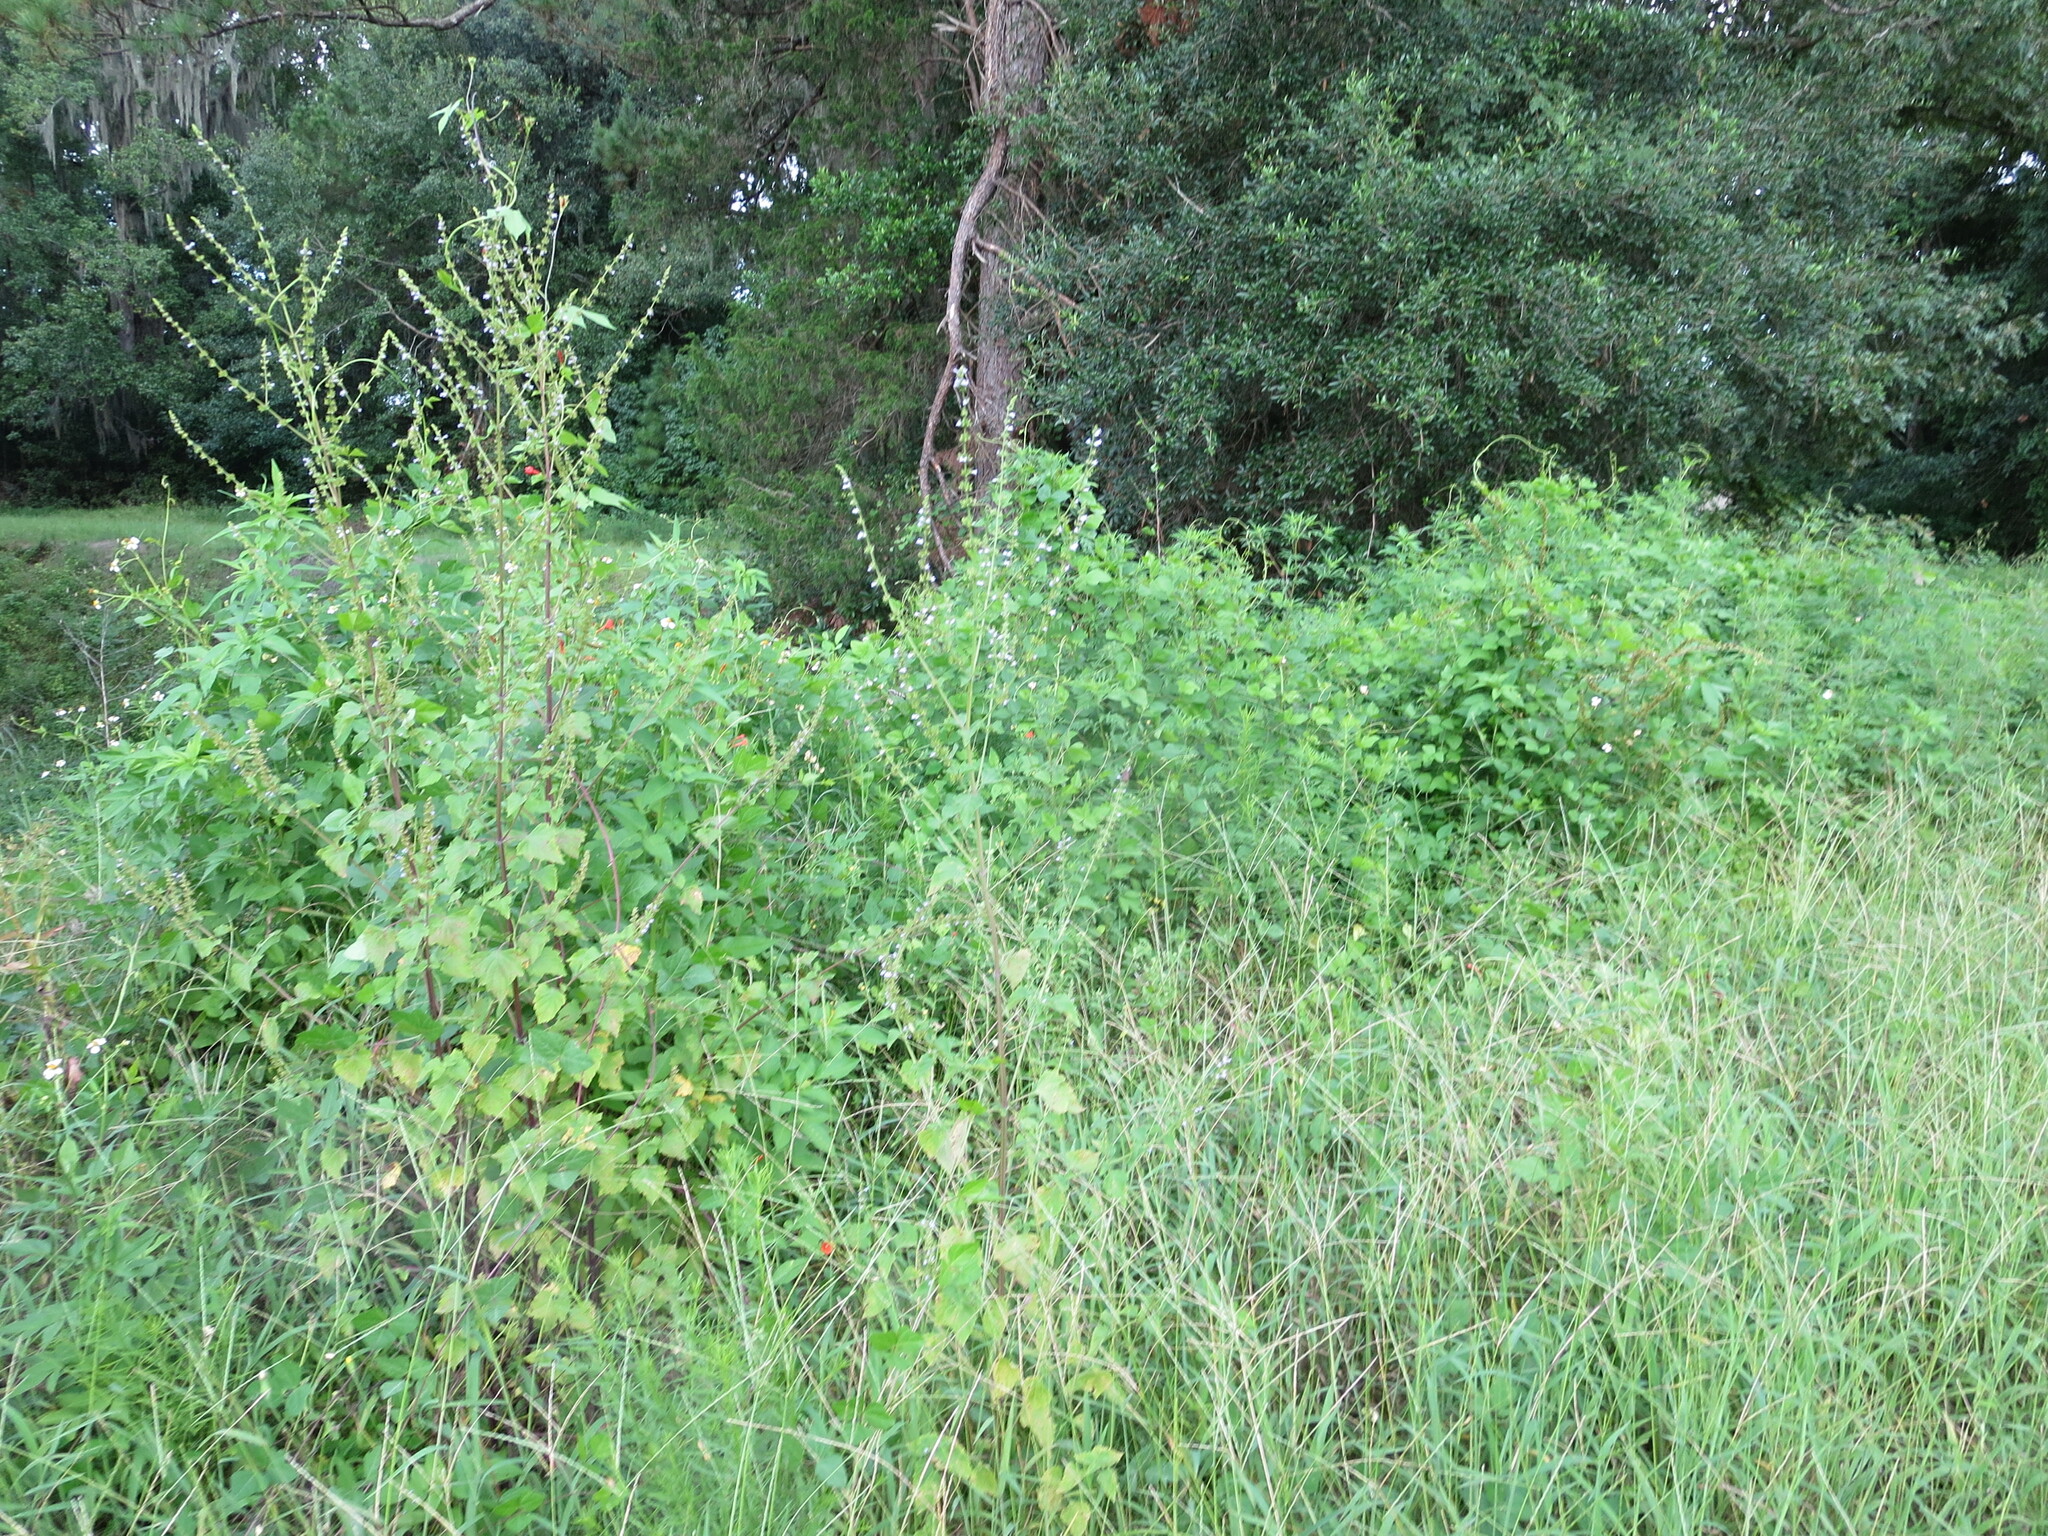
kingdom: Plantae
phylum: Tracheophyta
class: Magnoliopsida
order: Lamiales
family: Lamiaceae
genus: Cantinoa
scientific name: Cantinoa mutabilis
